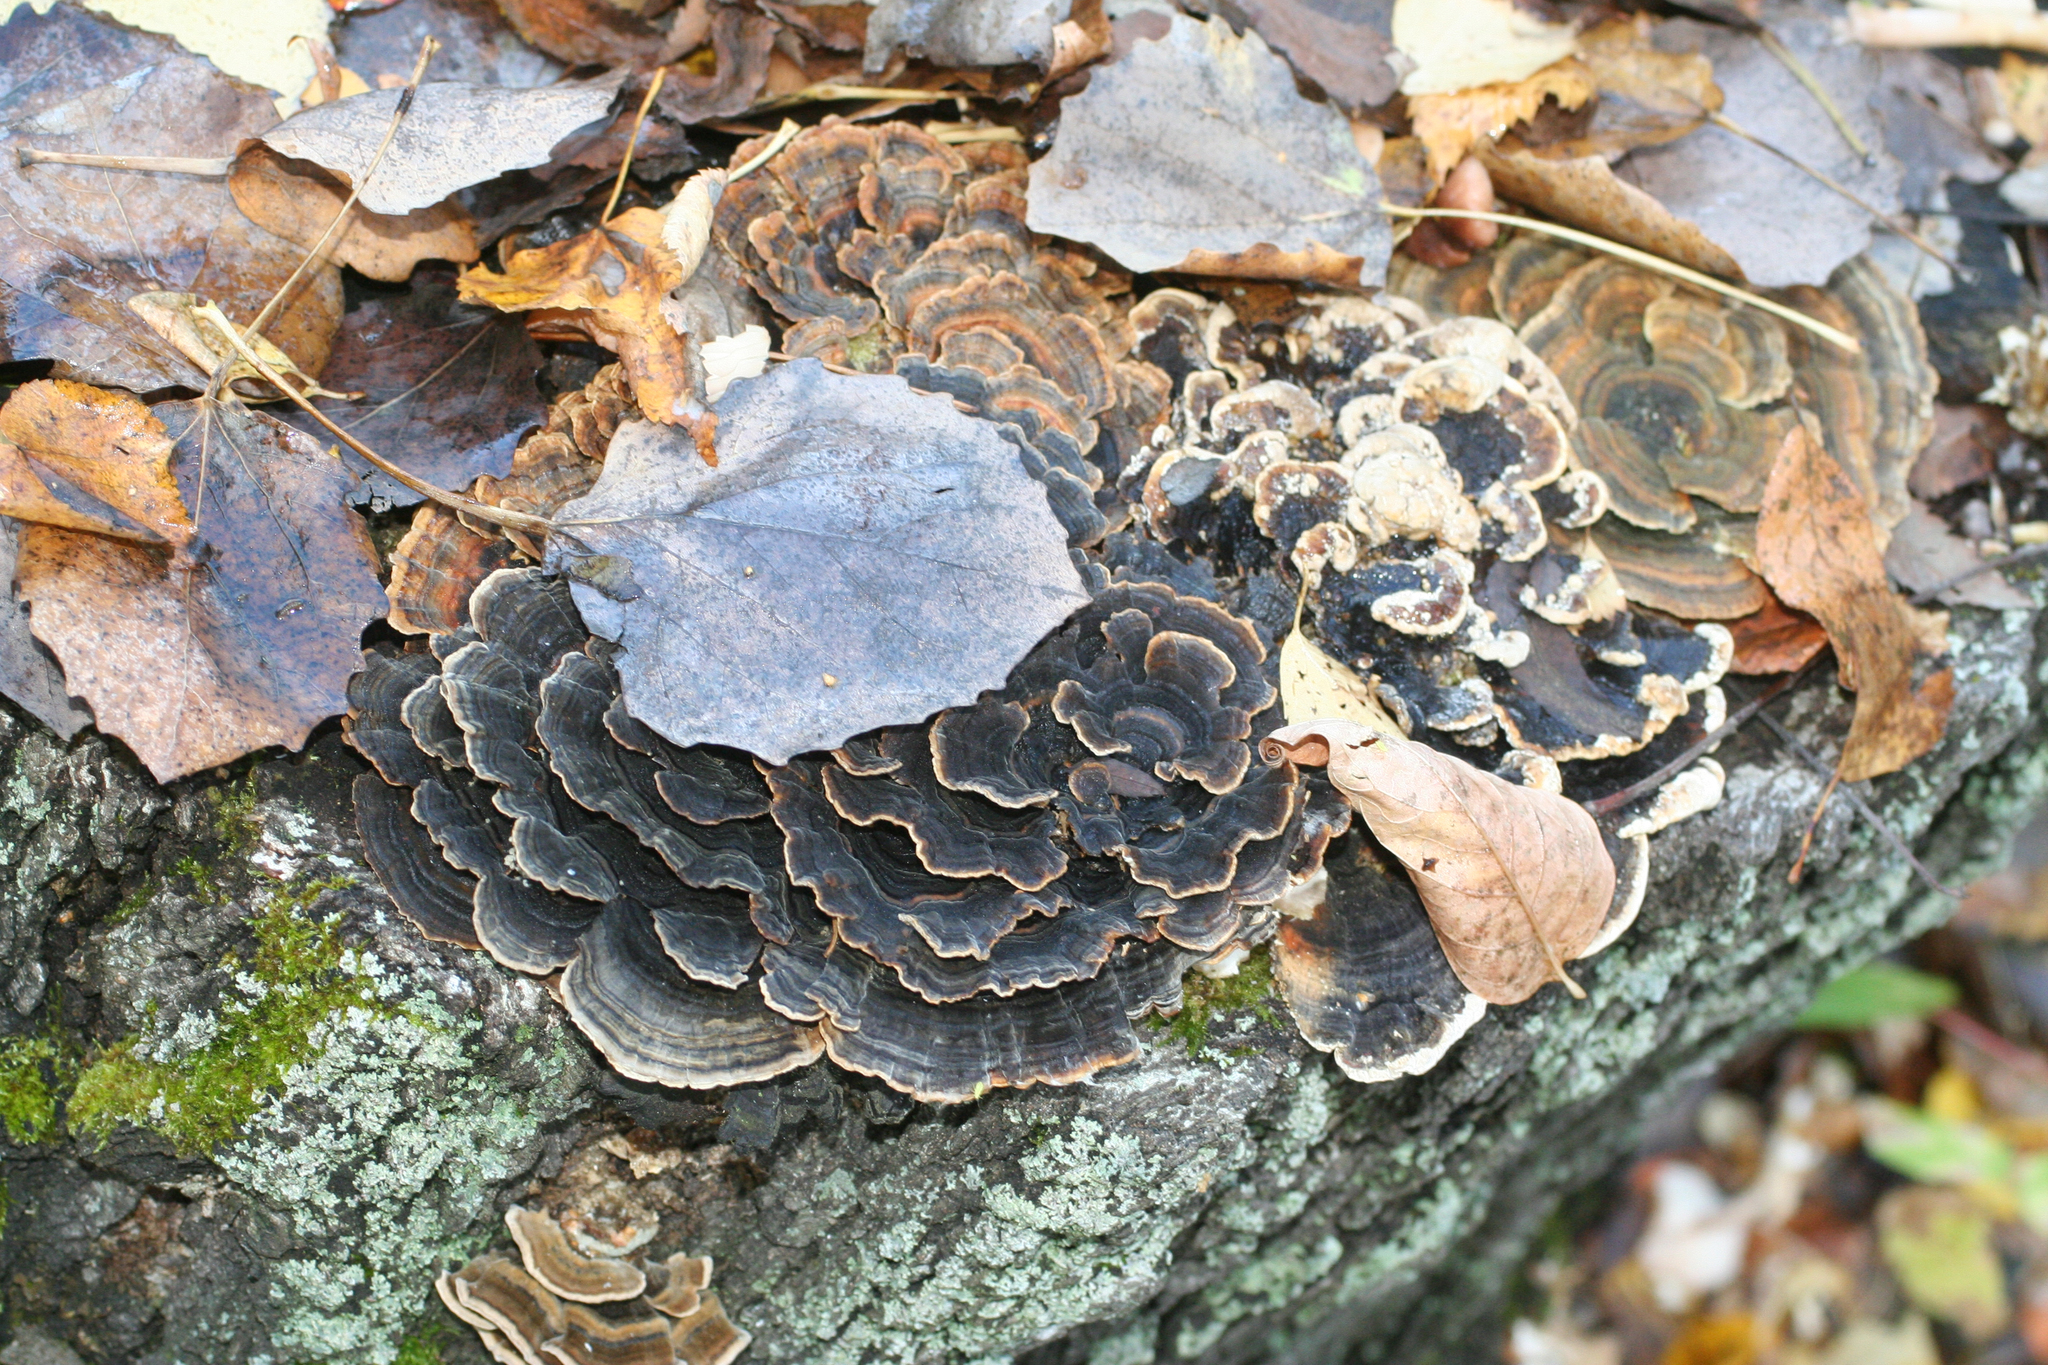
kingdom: Fungi
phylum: Basidiomycota
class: Agaricomycetes
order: Polyporales
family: Polyporaceae
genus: Trametes
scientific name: Trametes versicolor
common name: Turkeytail
